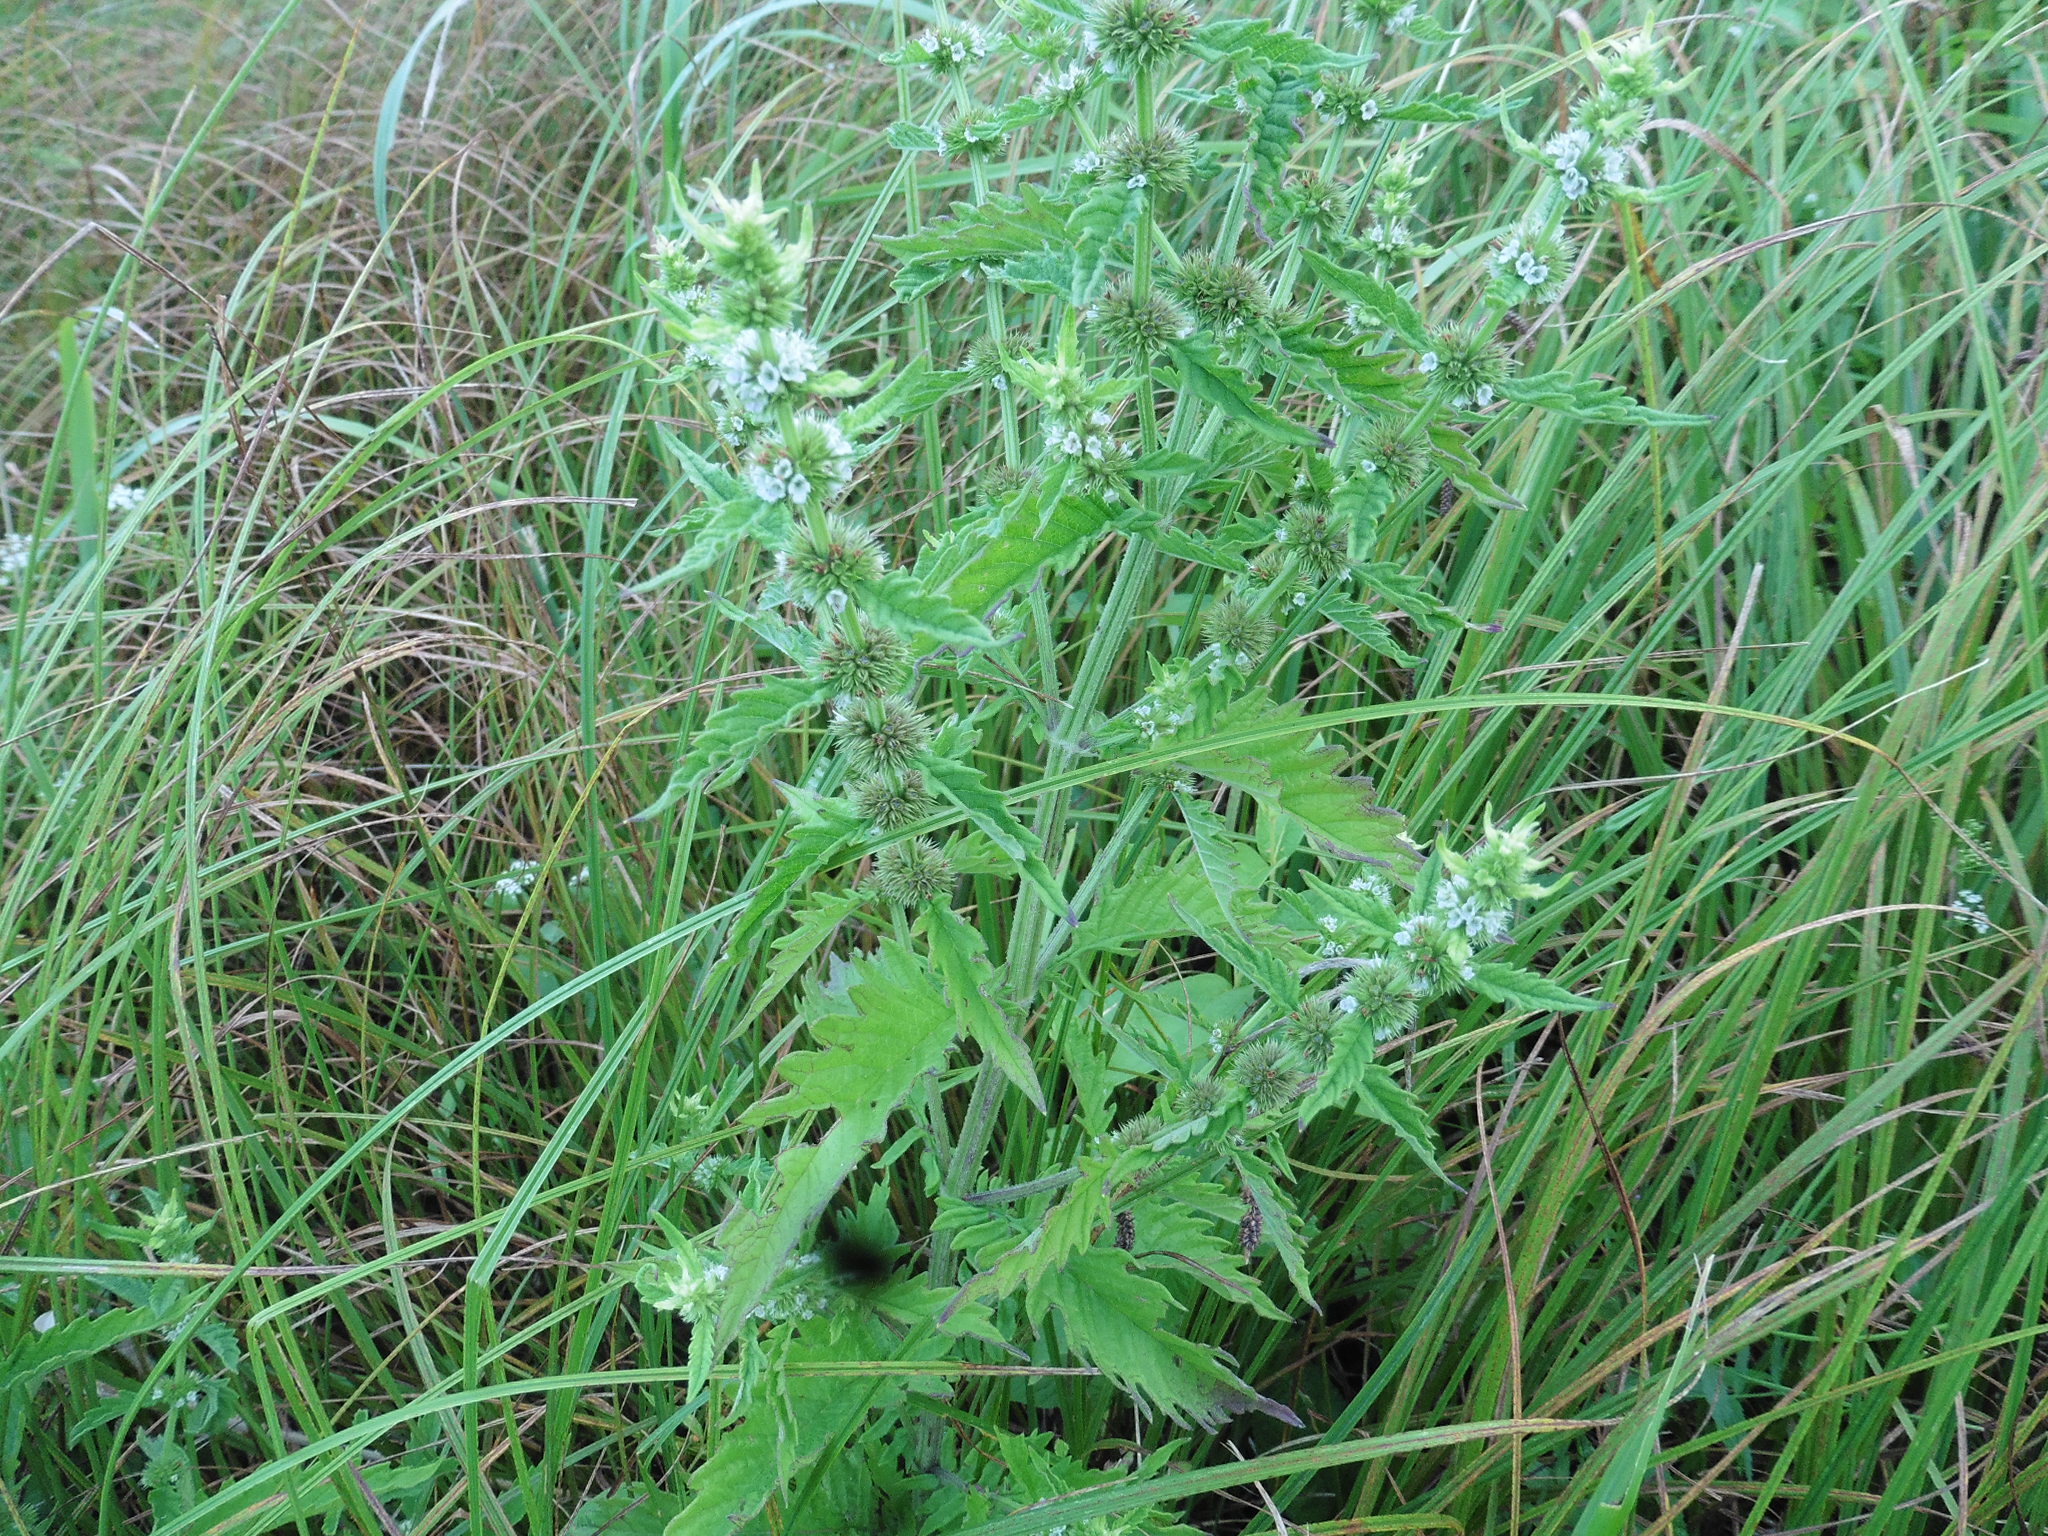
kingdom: Plantae
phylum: Tracheophyta
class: Magnoliopsida
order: Lamiales
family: Lamiaceae
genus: Lycopus
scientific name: Lycopus europaeus
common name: European bugleweed
